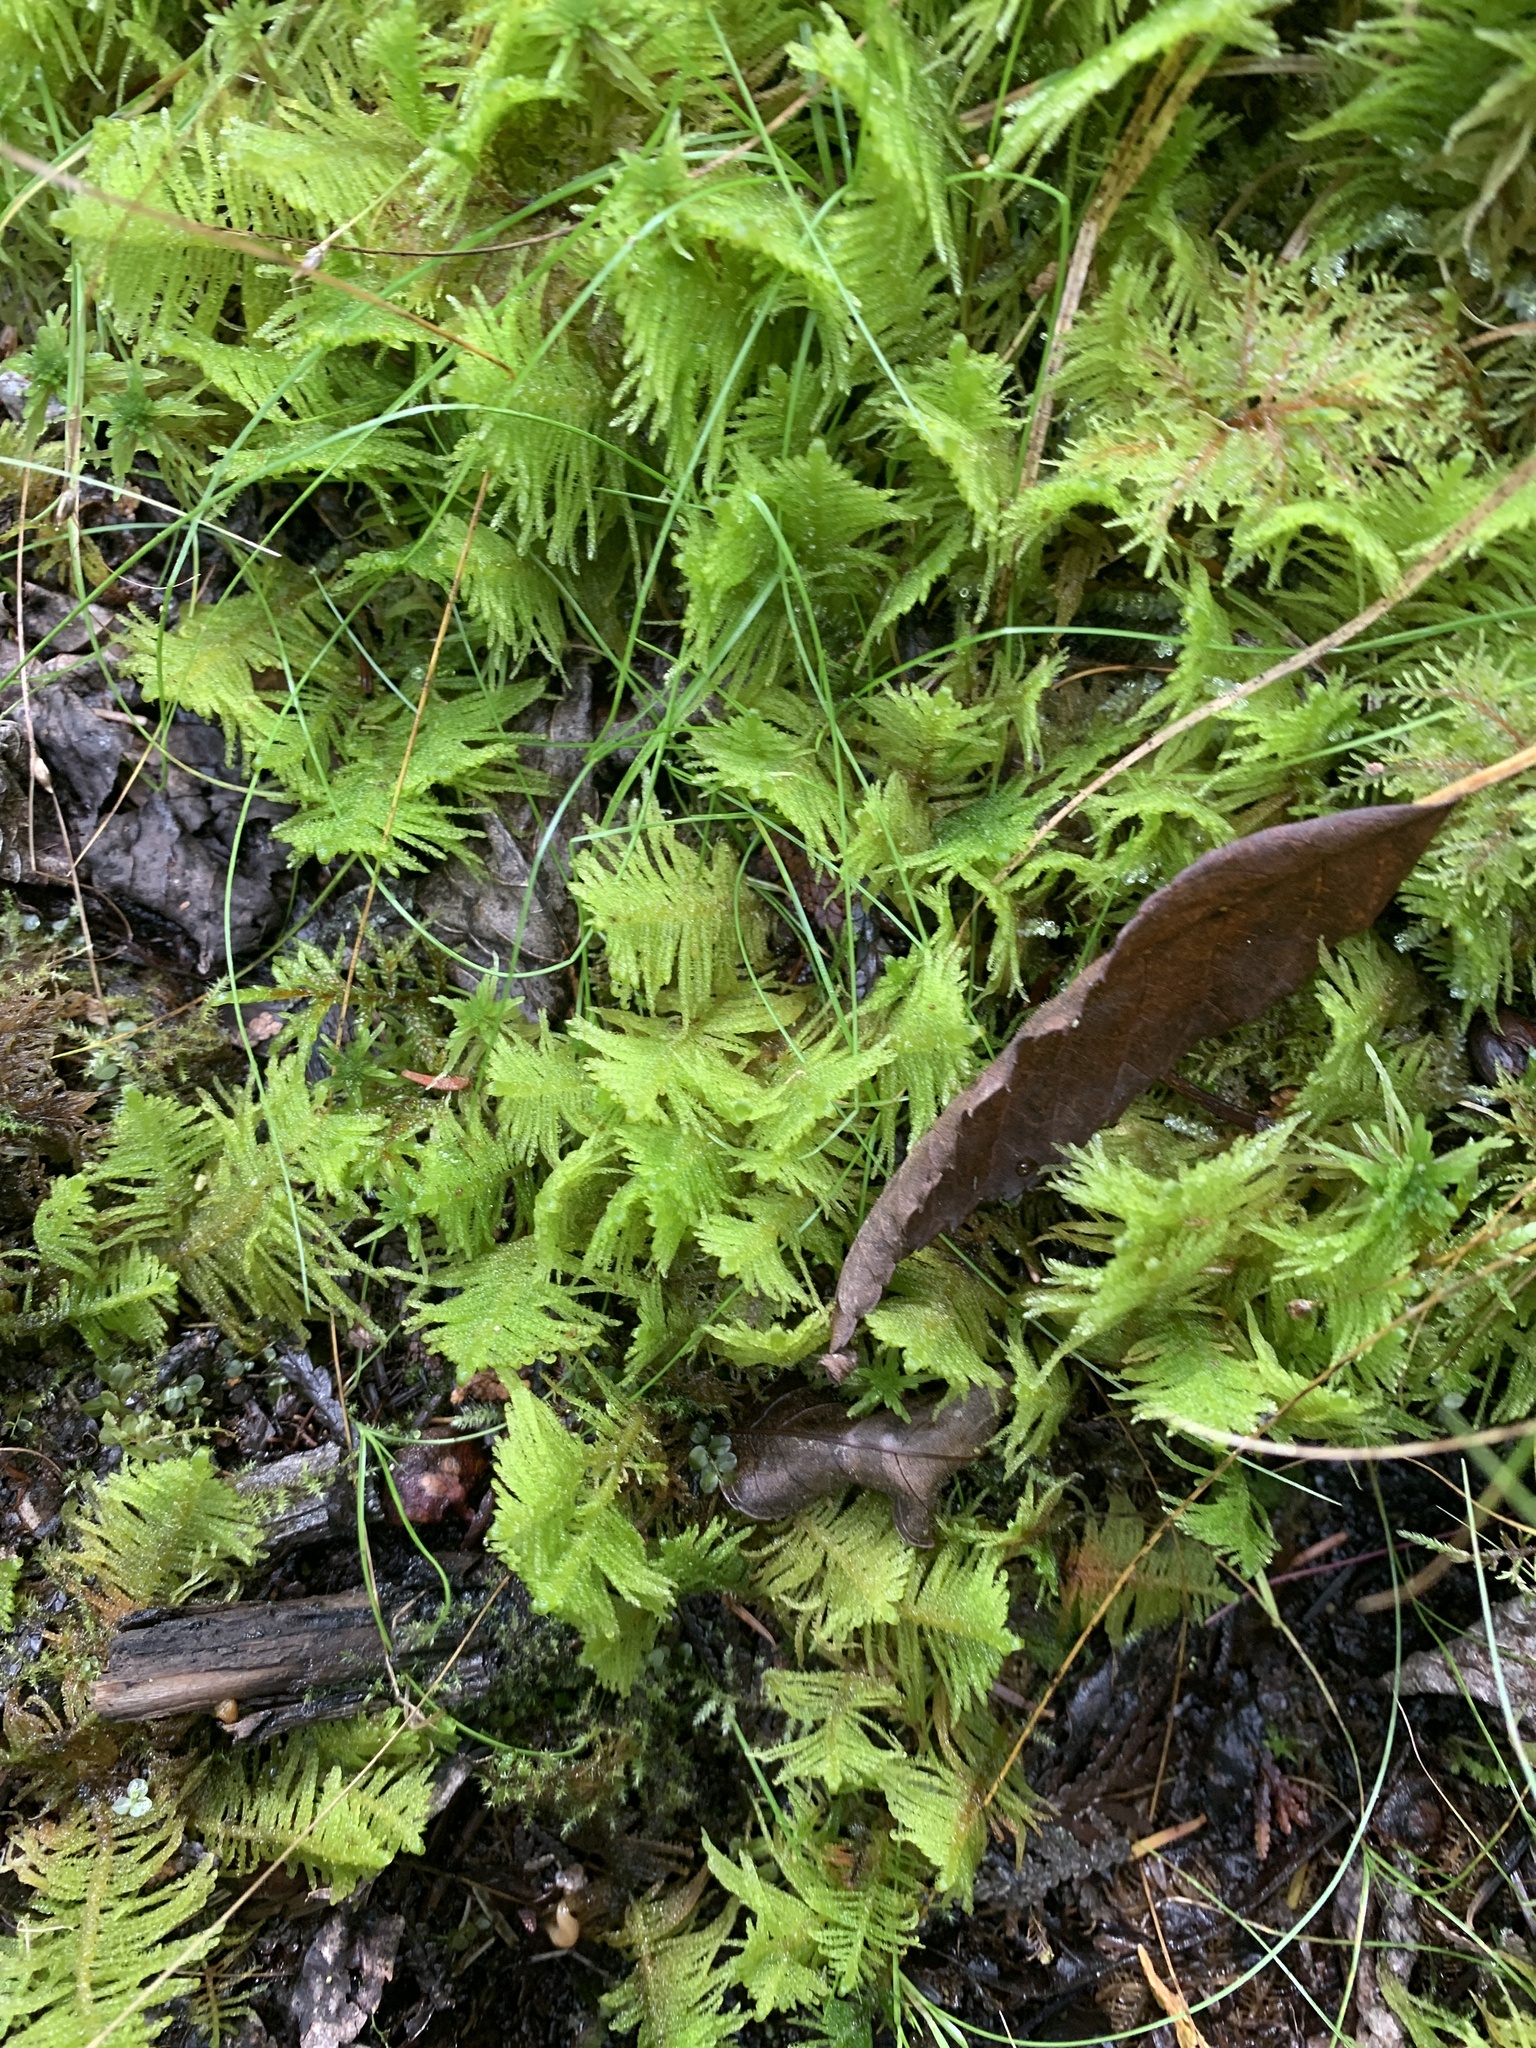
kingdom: Plantae
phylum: Bryophyta
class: Bryopsida
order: Hypnales
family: Pylaisiaceae
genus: Ptilium
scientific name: Ptilium crista-castrensis
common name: Knight's plume moss
